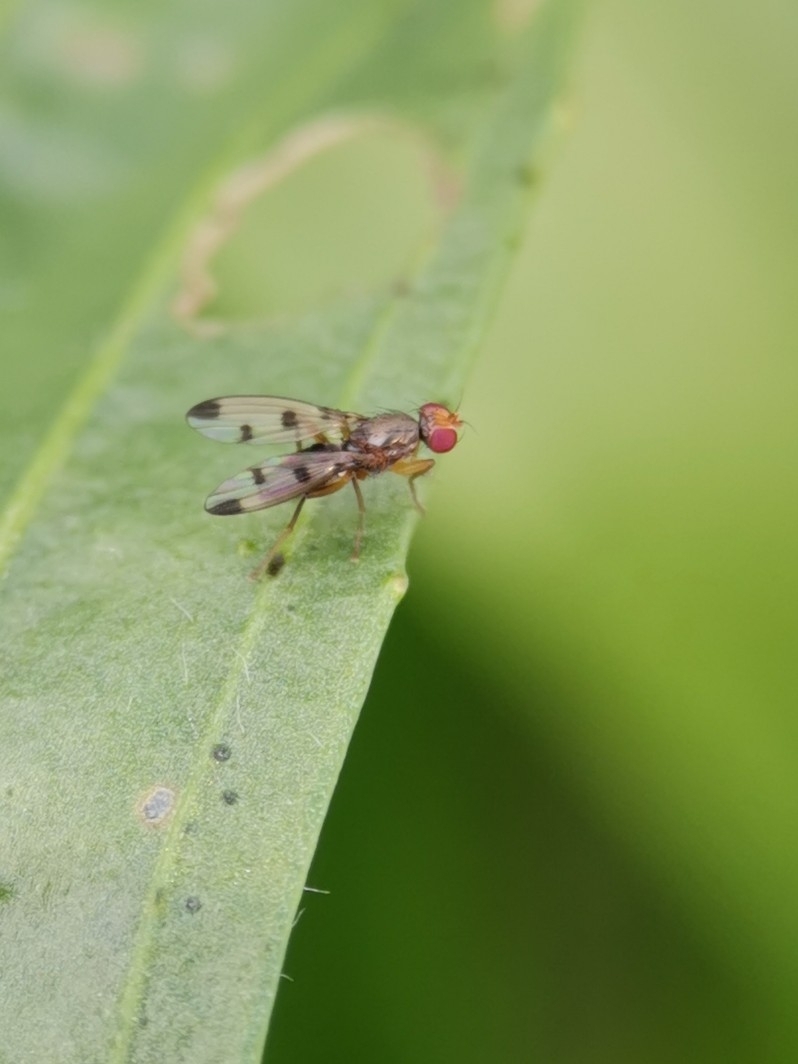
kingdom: Animalia
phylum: Arthropoda
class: Insecta
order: Diptera
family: Opomyzidae
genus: Geomyza
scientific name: Geomyza tripunctata
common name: Cereal fly
